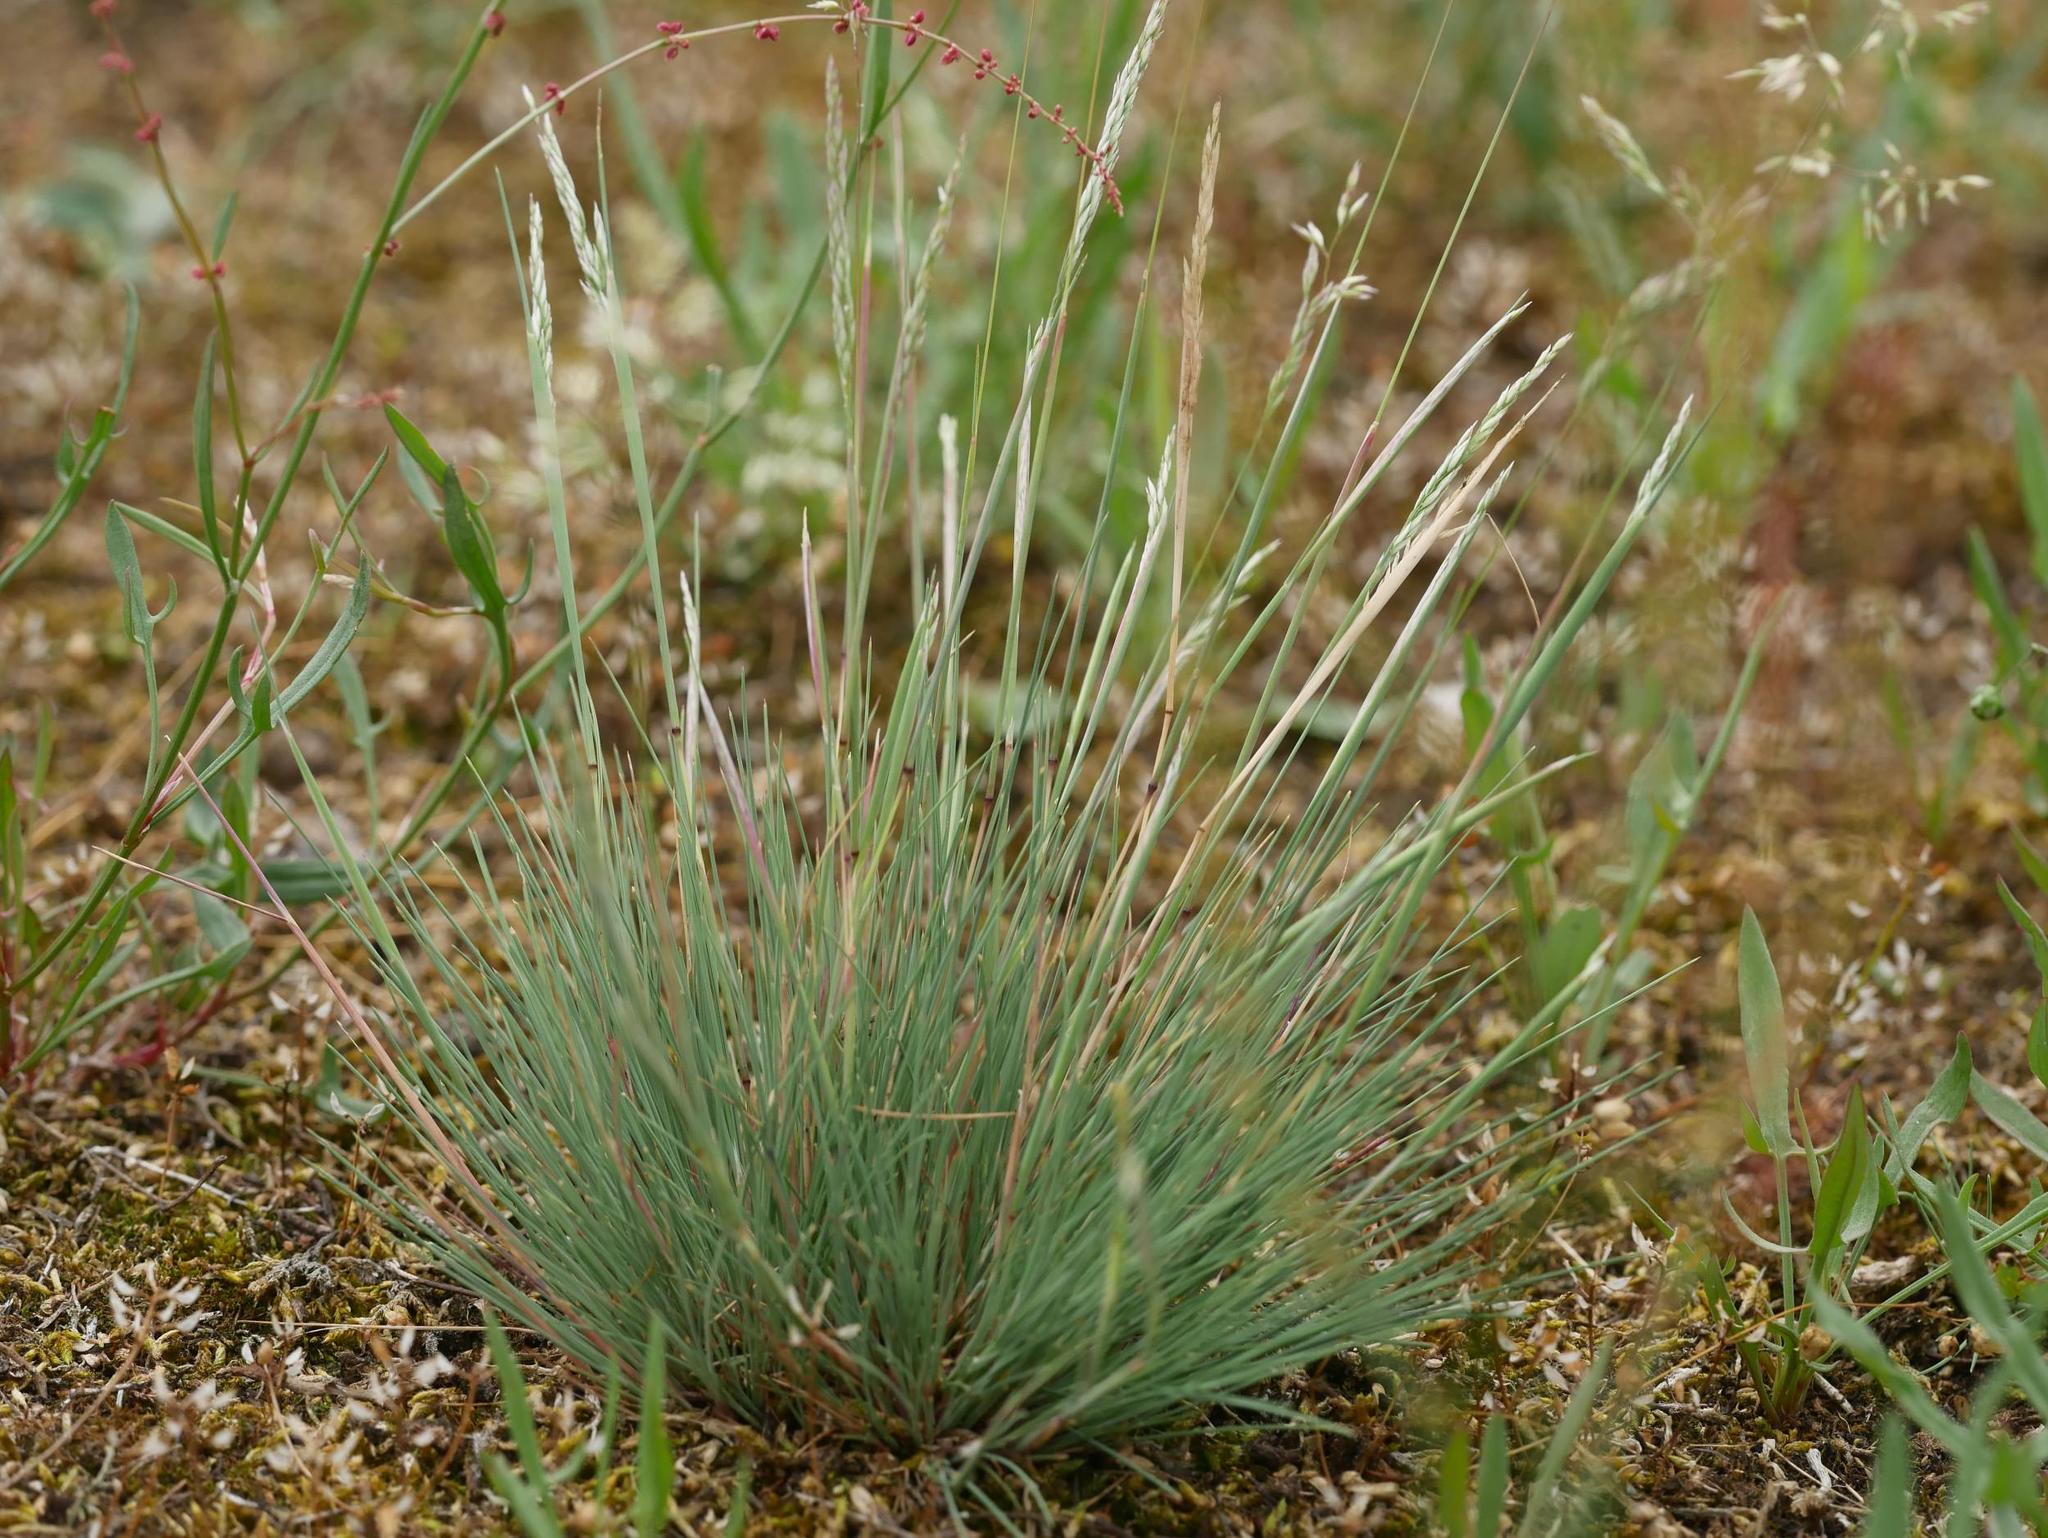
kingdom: Plantae
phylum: Tracheophyta
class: Liliopsida
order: Poales
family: Poaceae
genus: Corynephorus
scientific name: Corynephorus canescens
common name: Grey hair-grass
